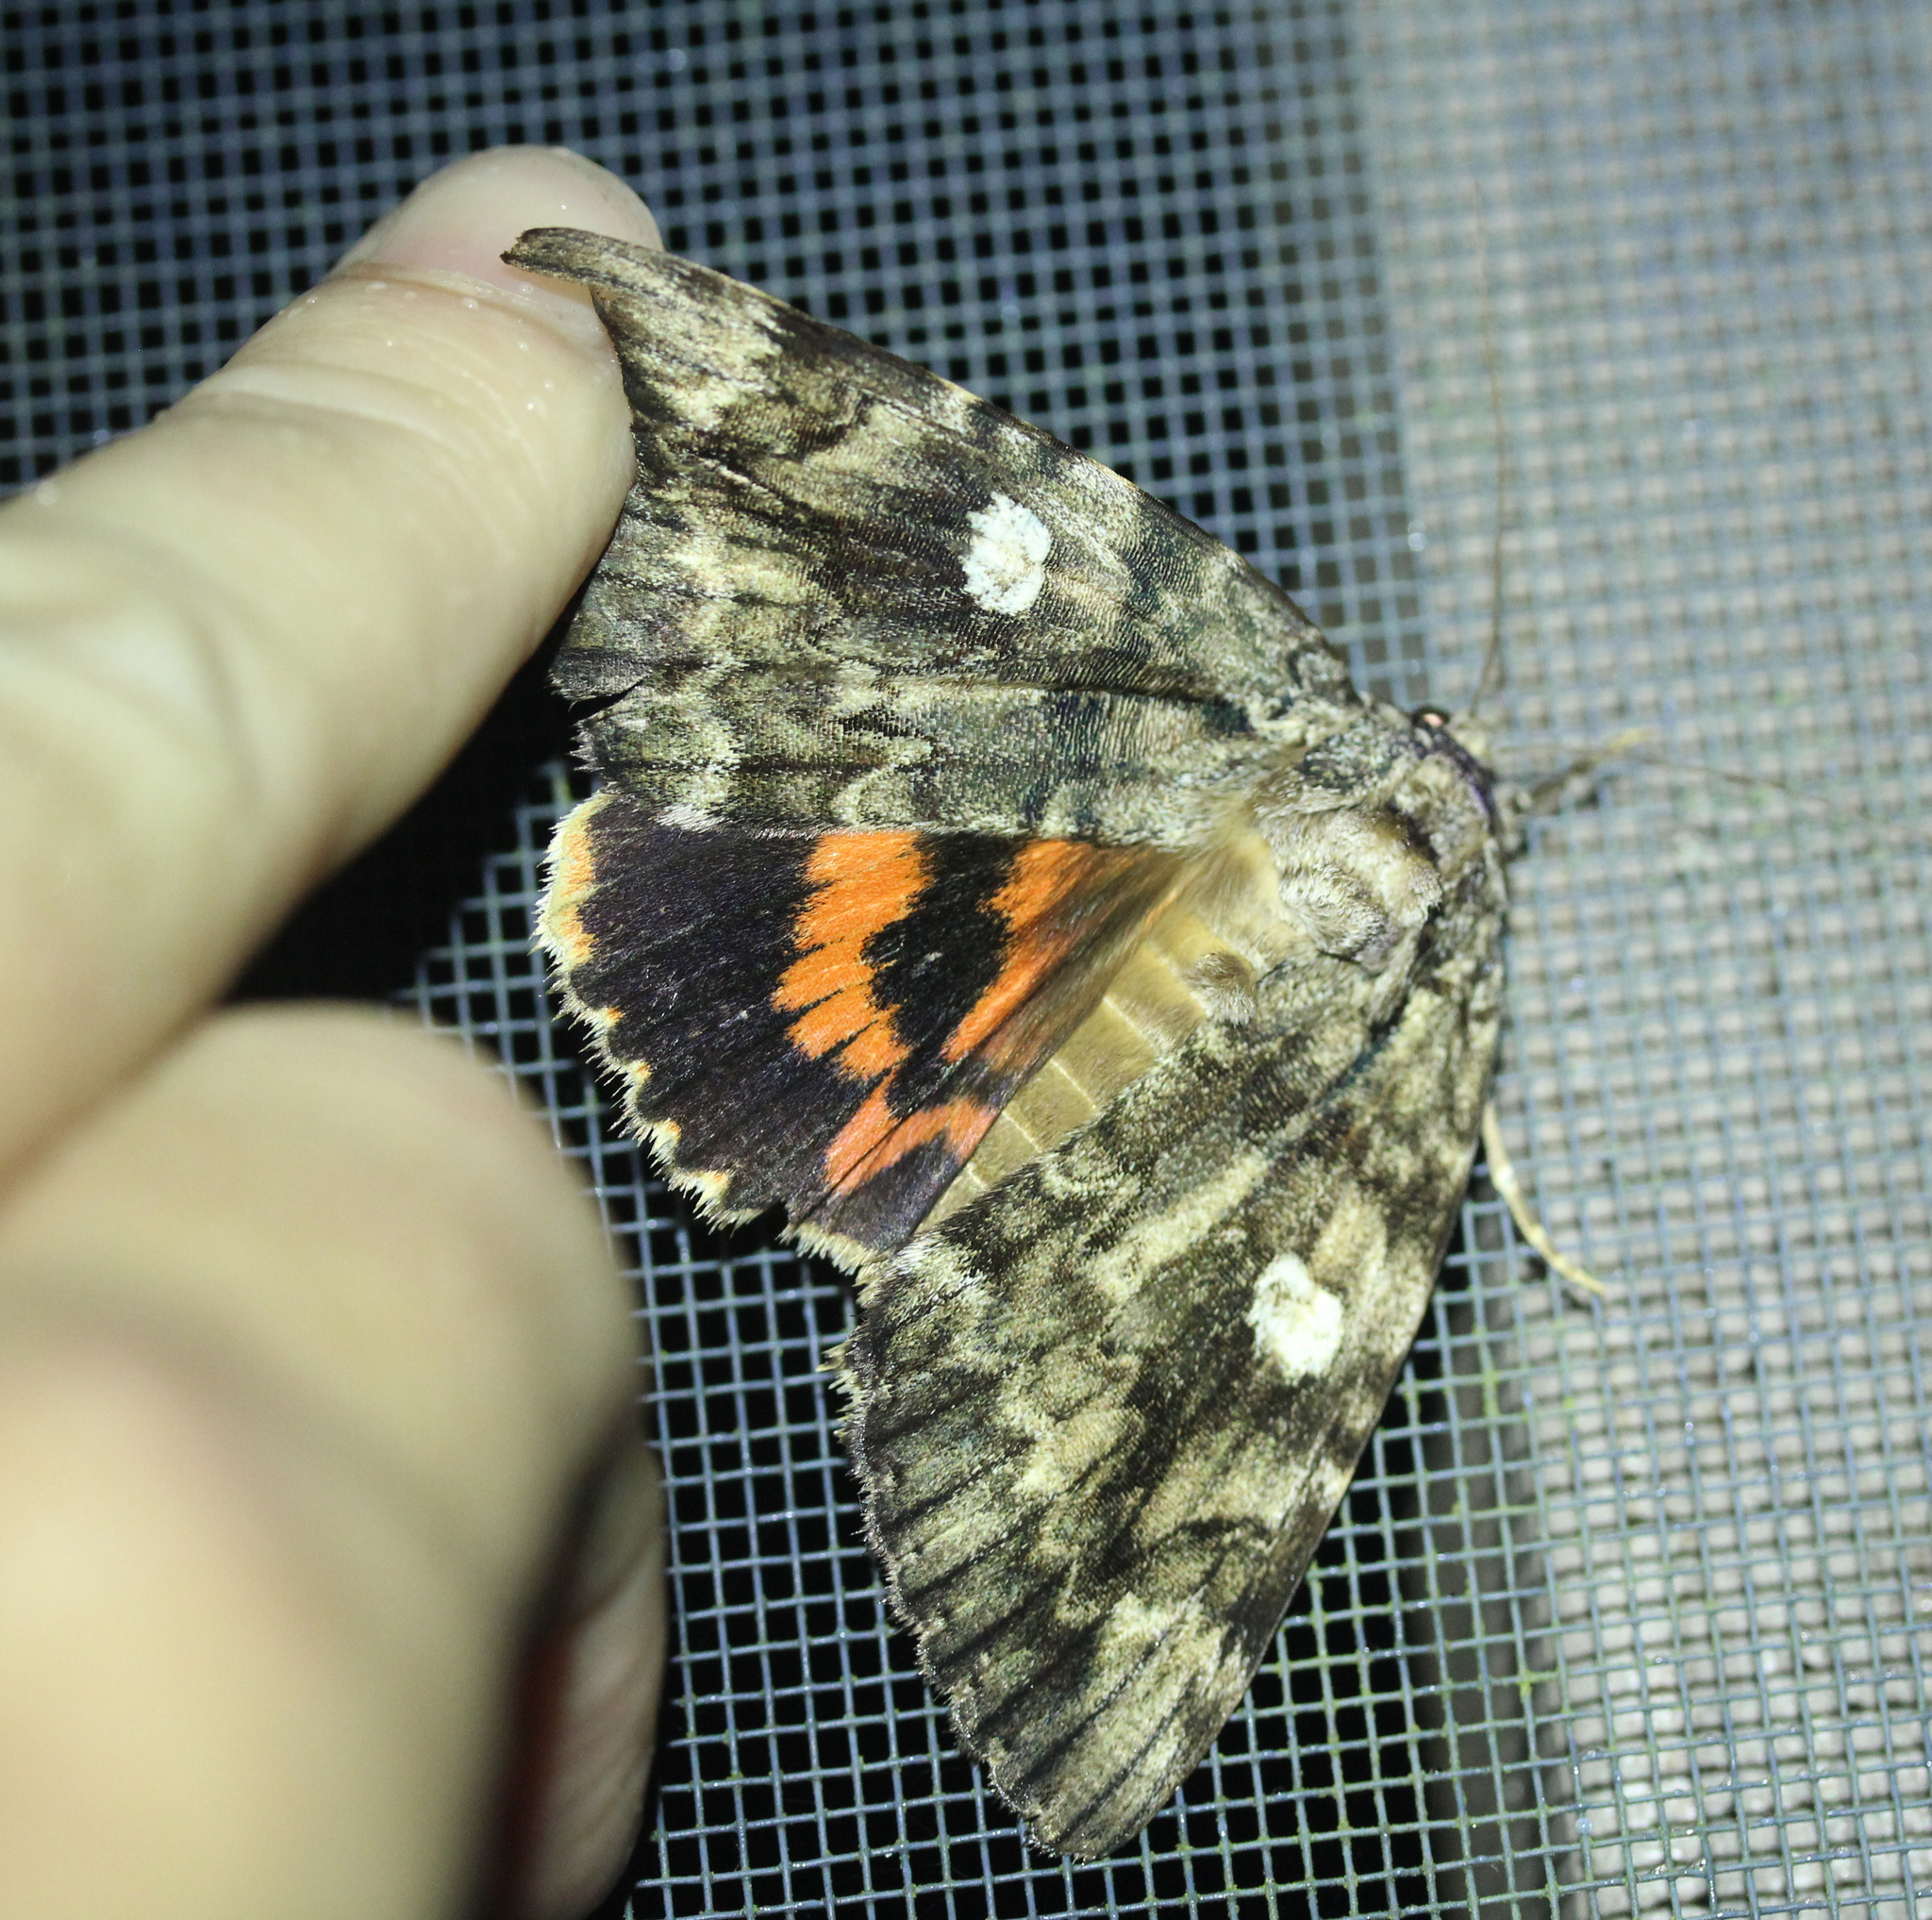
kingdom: Animalia
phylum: Arthropoda
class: Insecta
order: Lepidoptera
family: Erebidae
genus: Catocala
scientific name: Catocala ilia
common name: Ilia underwing
